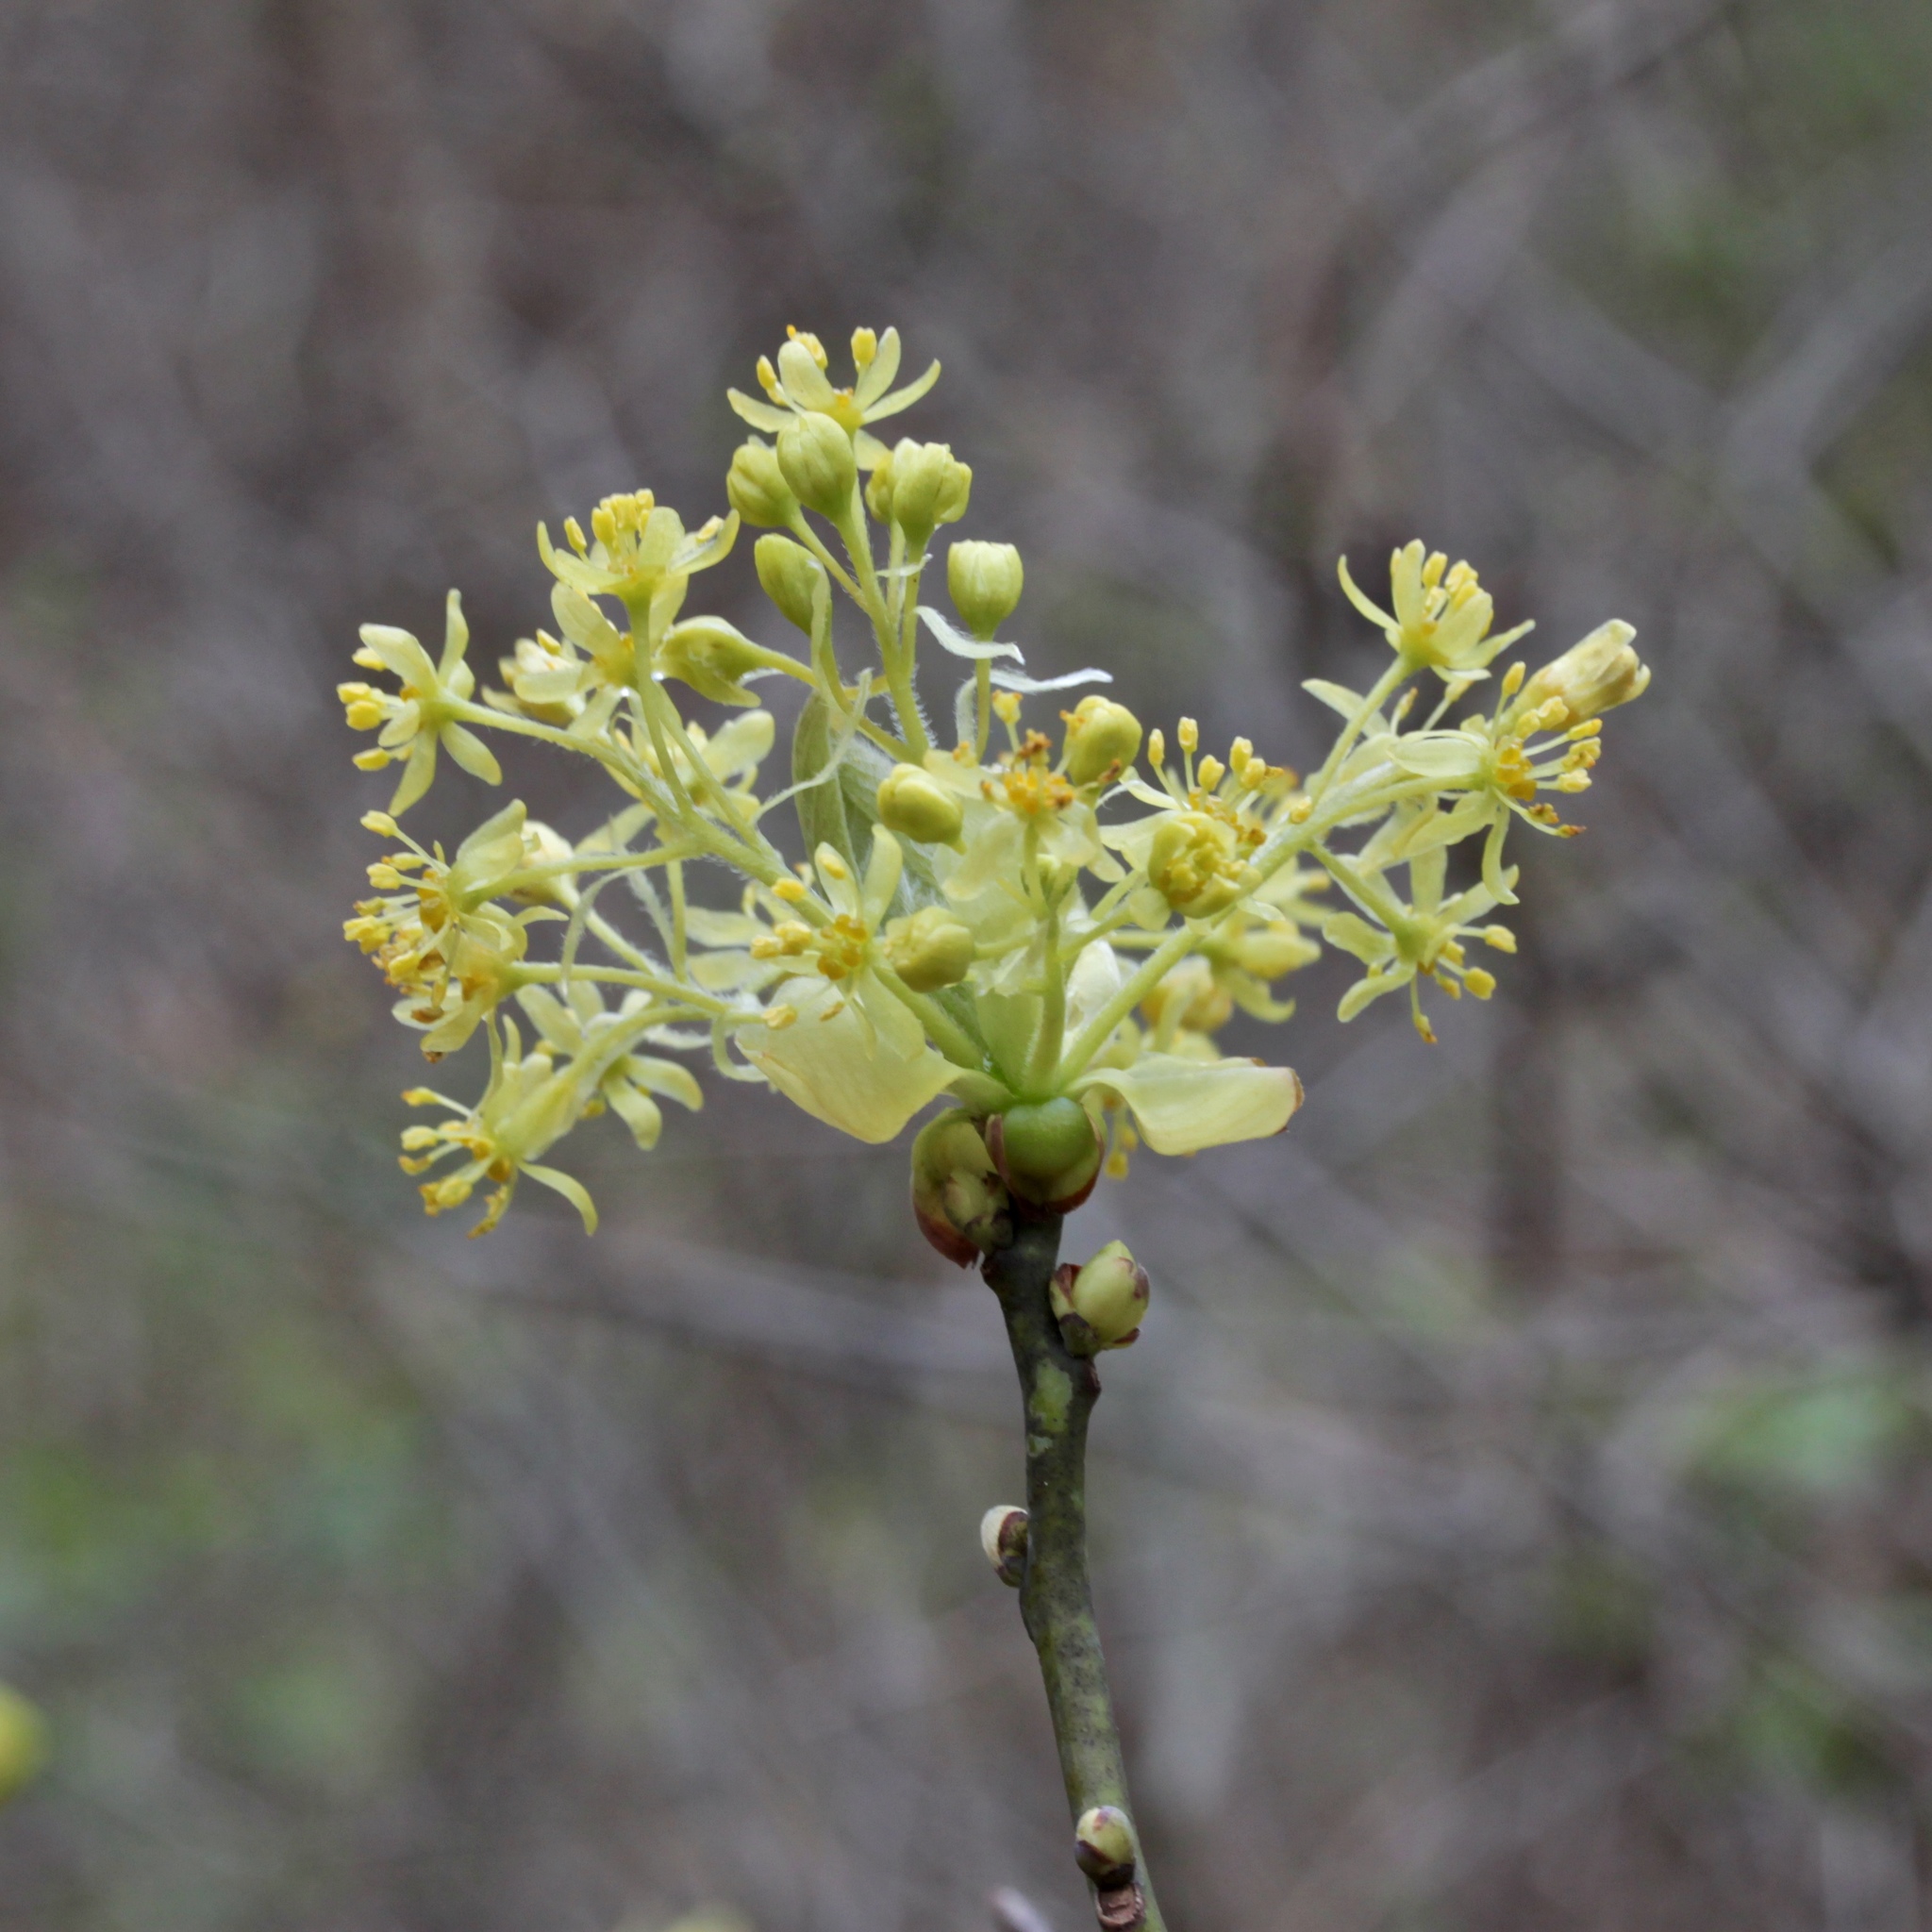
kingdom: Plantae
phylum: Tracheophyta
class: Magnoliopsida
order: Laurales
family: Lauraceae
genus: Sassafras
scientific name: Sassafras albidum
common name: Sassafras
